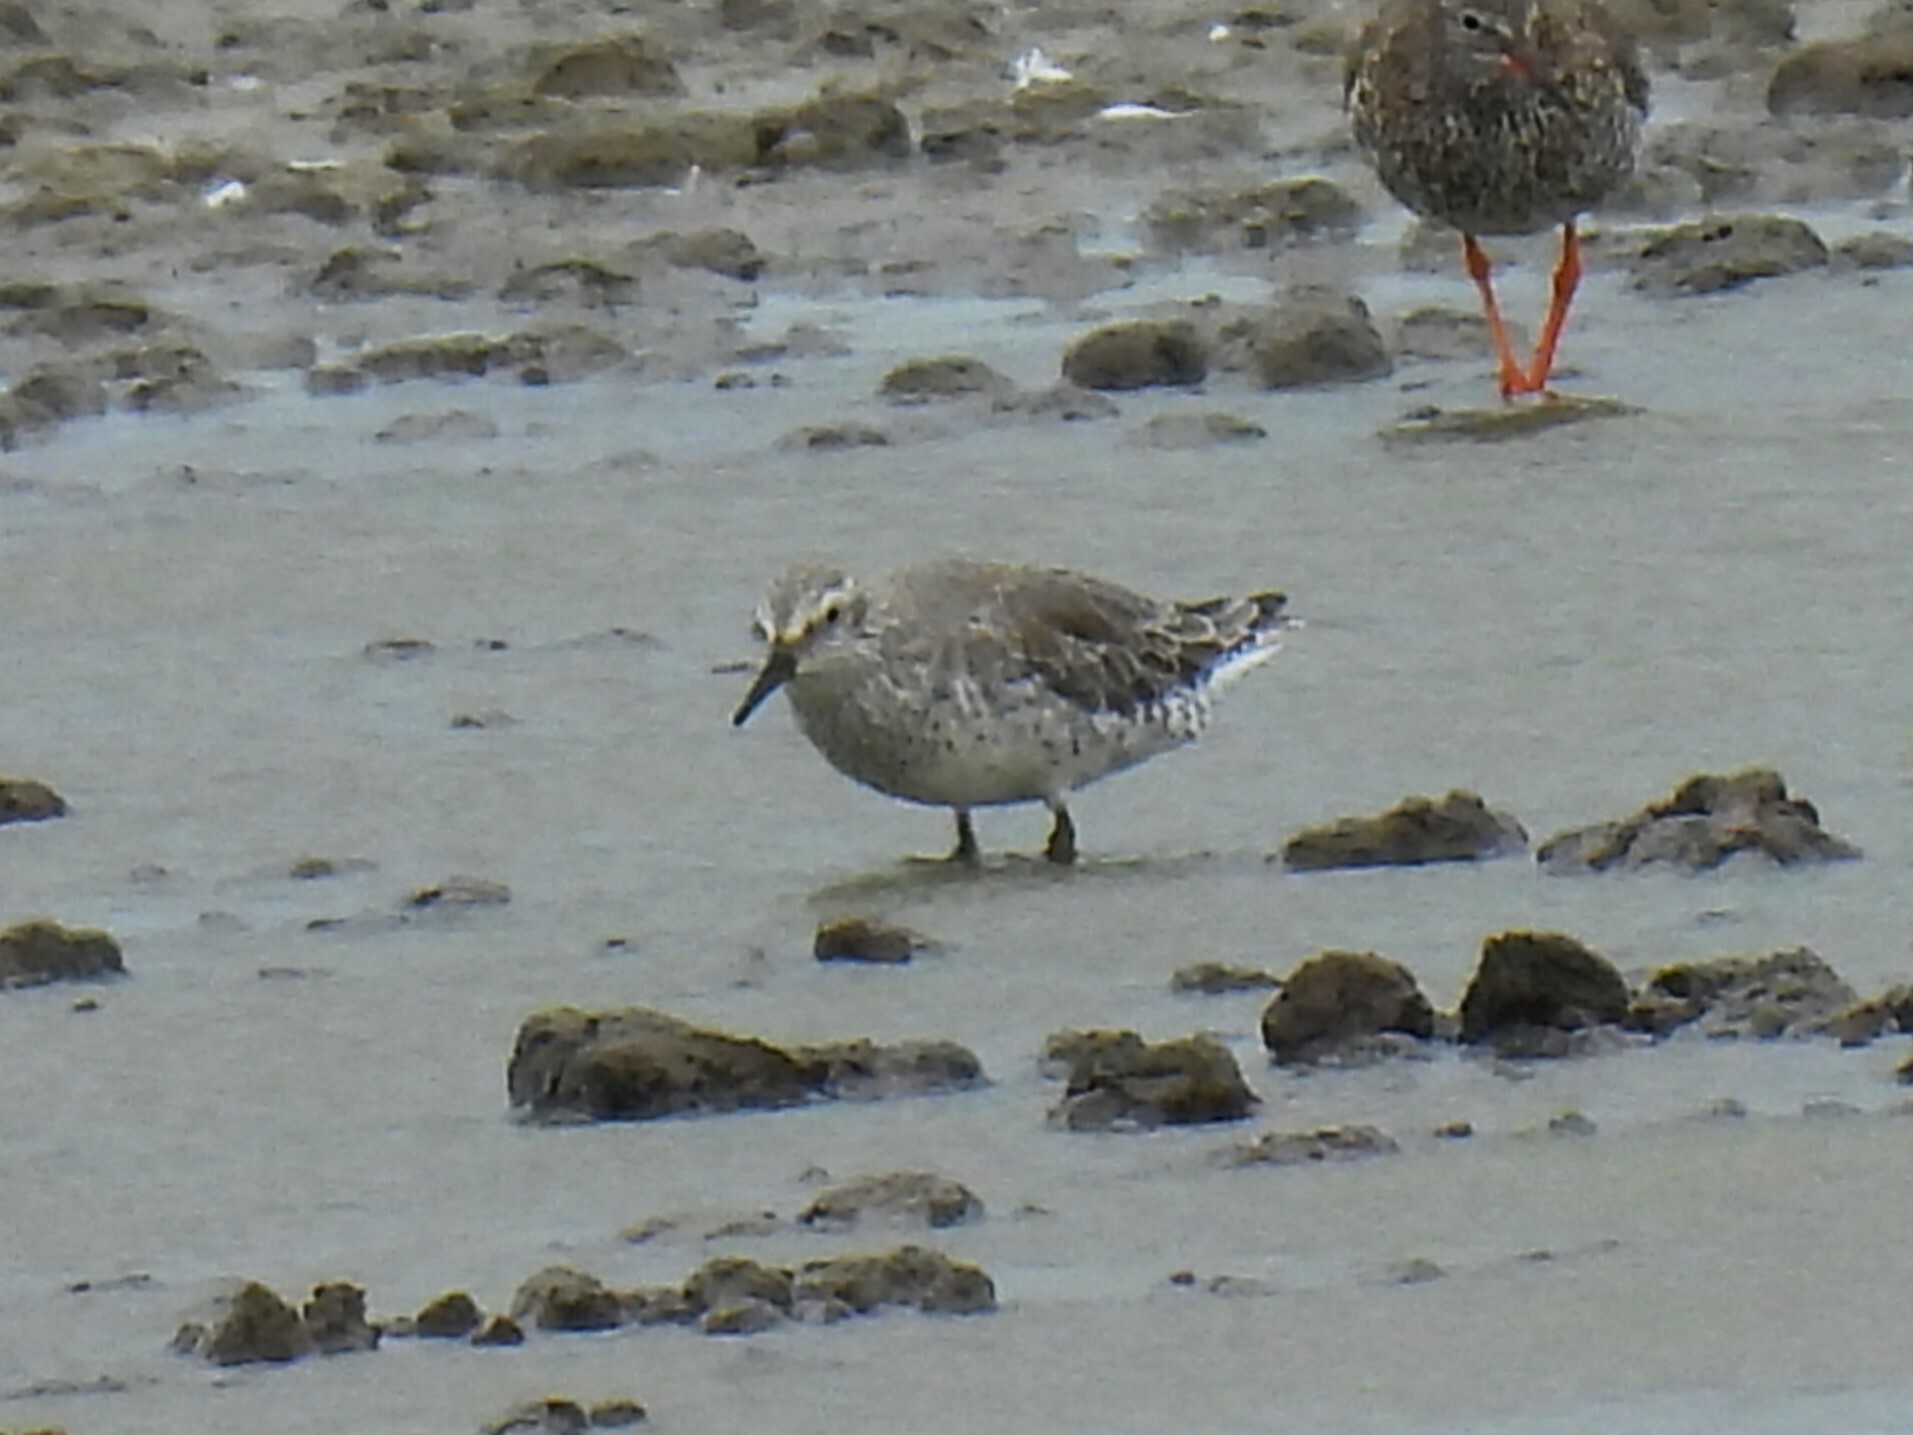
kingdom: Animalia
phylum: Chordata
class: Aves
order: Charadriiformes
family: Scolopacidae
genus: Calidris
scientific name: Calidris canutus
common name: Red knot
